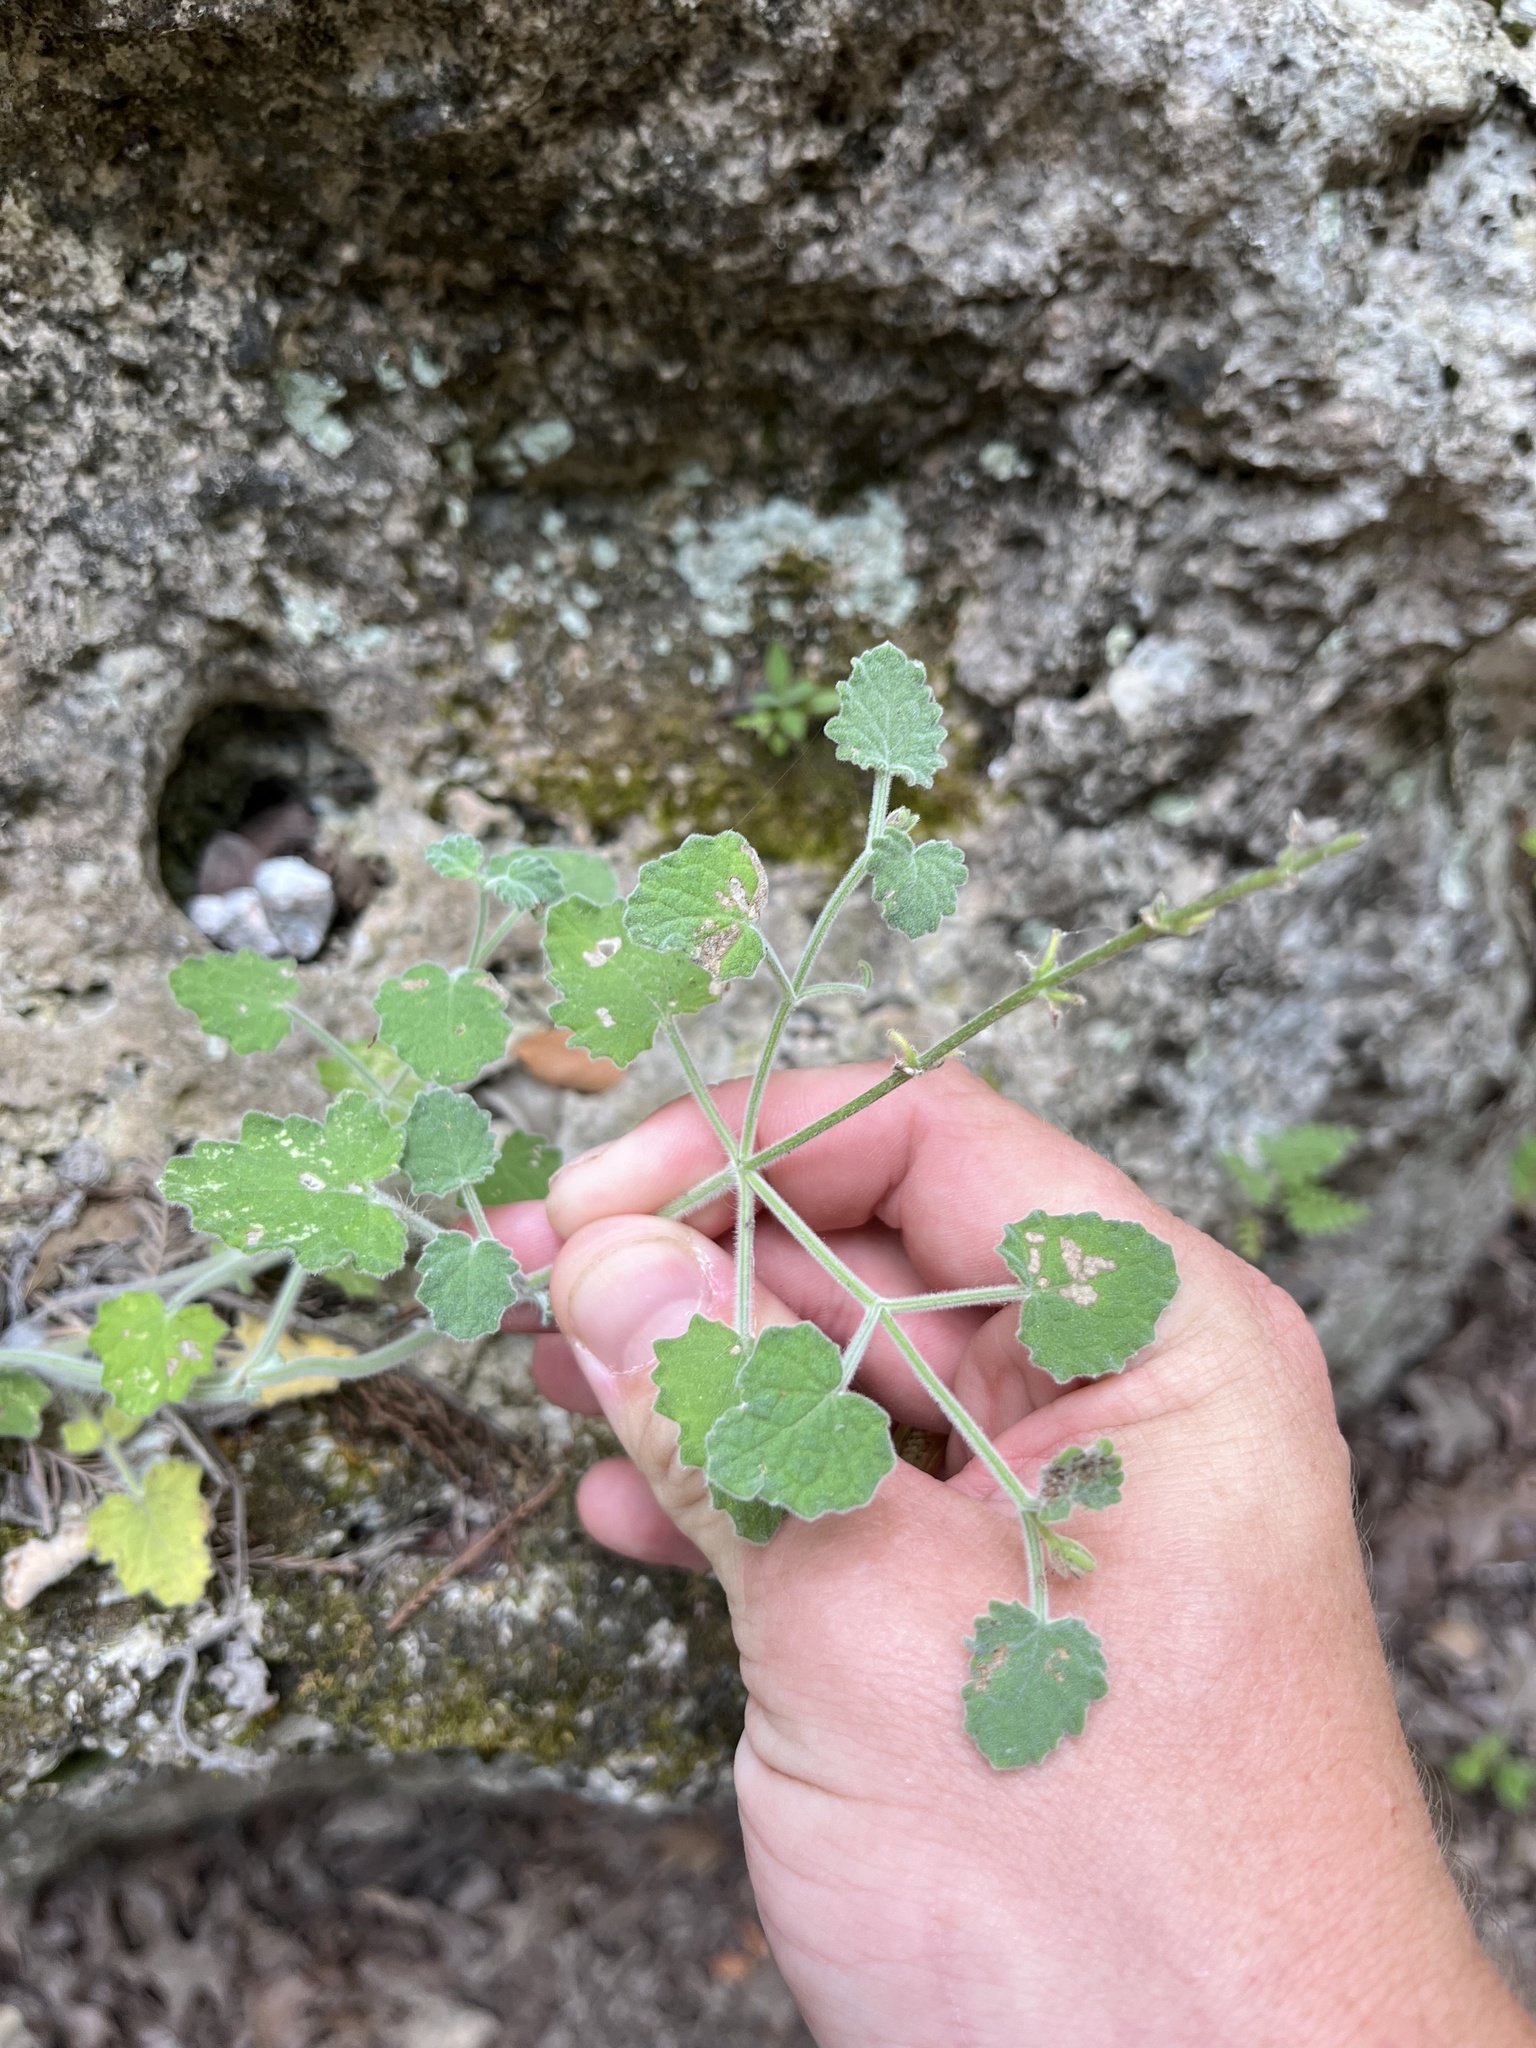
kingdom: Plantae
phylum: Tracheophyta
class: Magnoliopsida
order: Lamiales
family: Lamiaceae
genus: Salvia
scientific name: Salvia roemeriana
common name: Cedar sage
